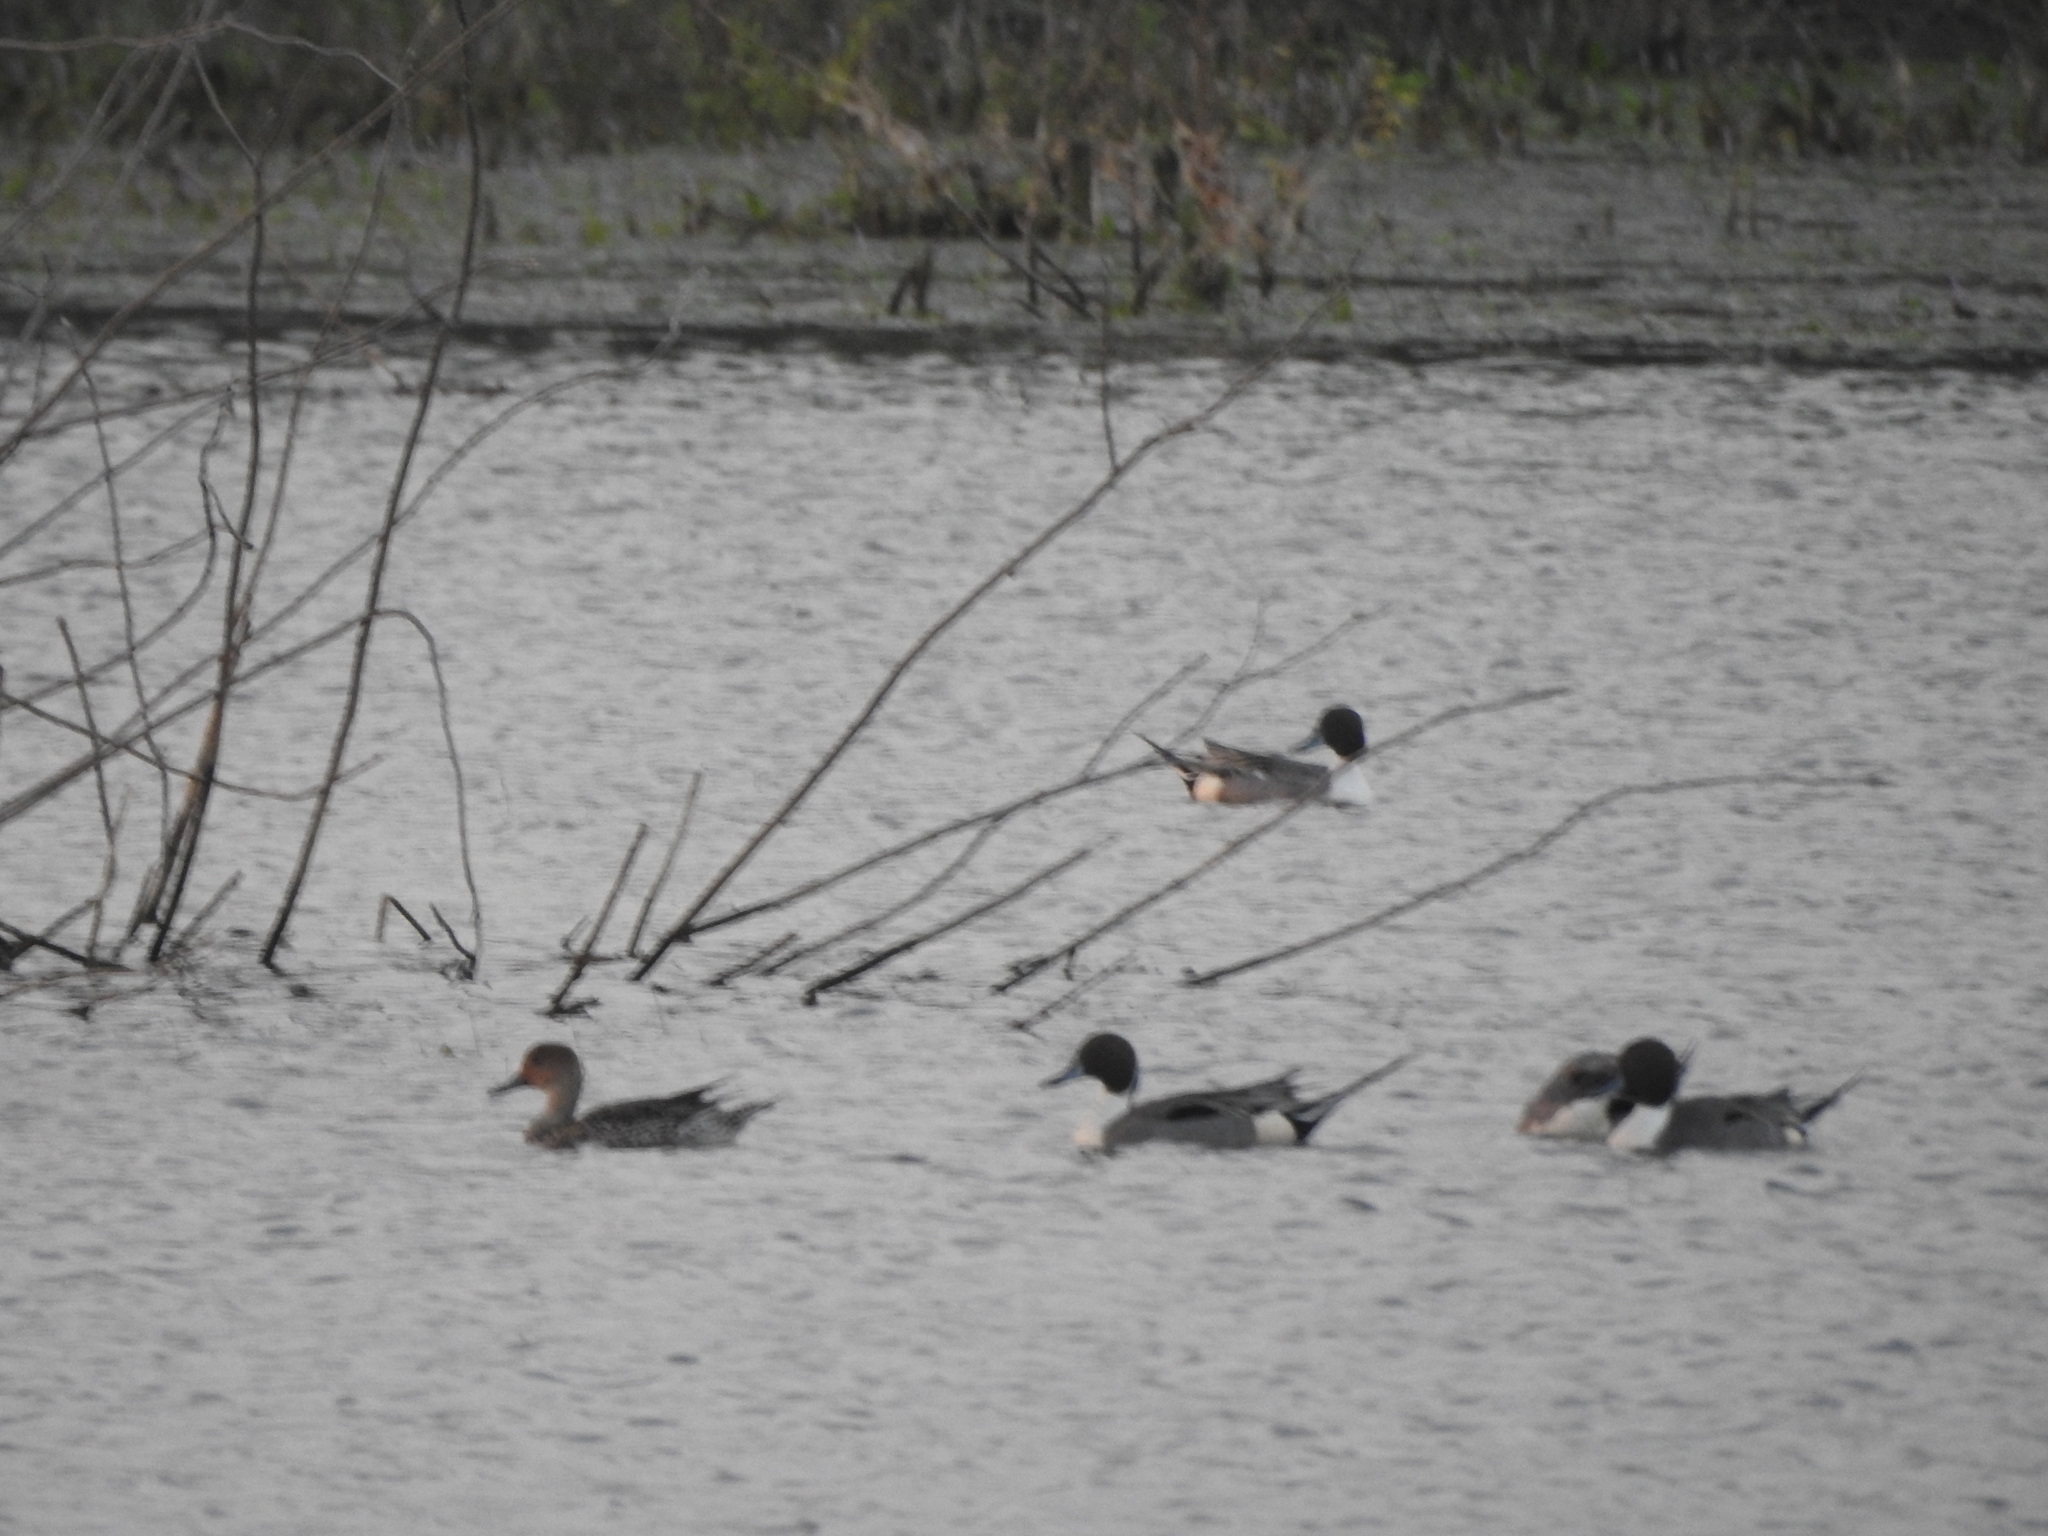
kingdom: Animalia
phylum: Chordata
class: Aves
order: Anseriformes
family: Anatidae
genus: Anas
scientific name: Anas acuta
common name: Northern pintail
